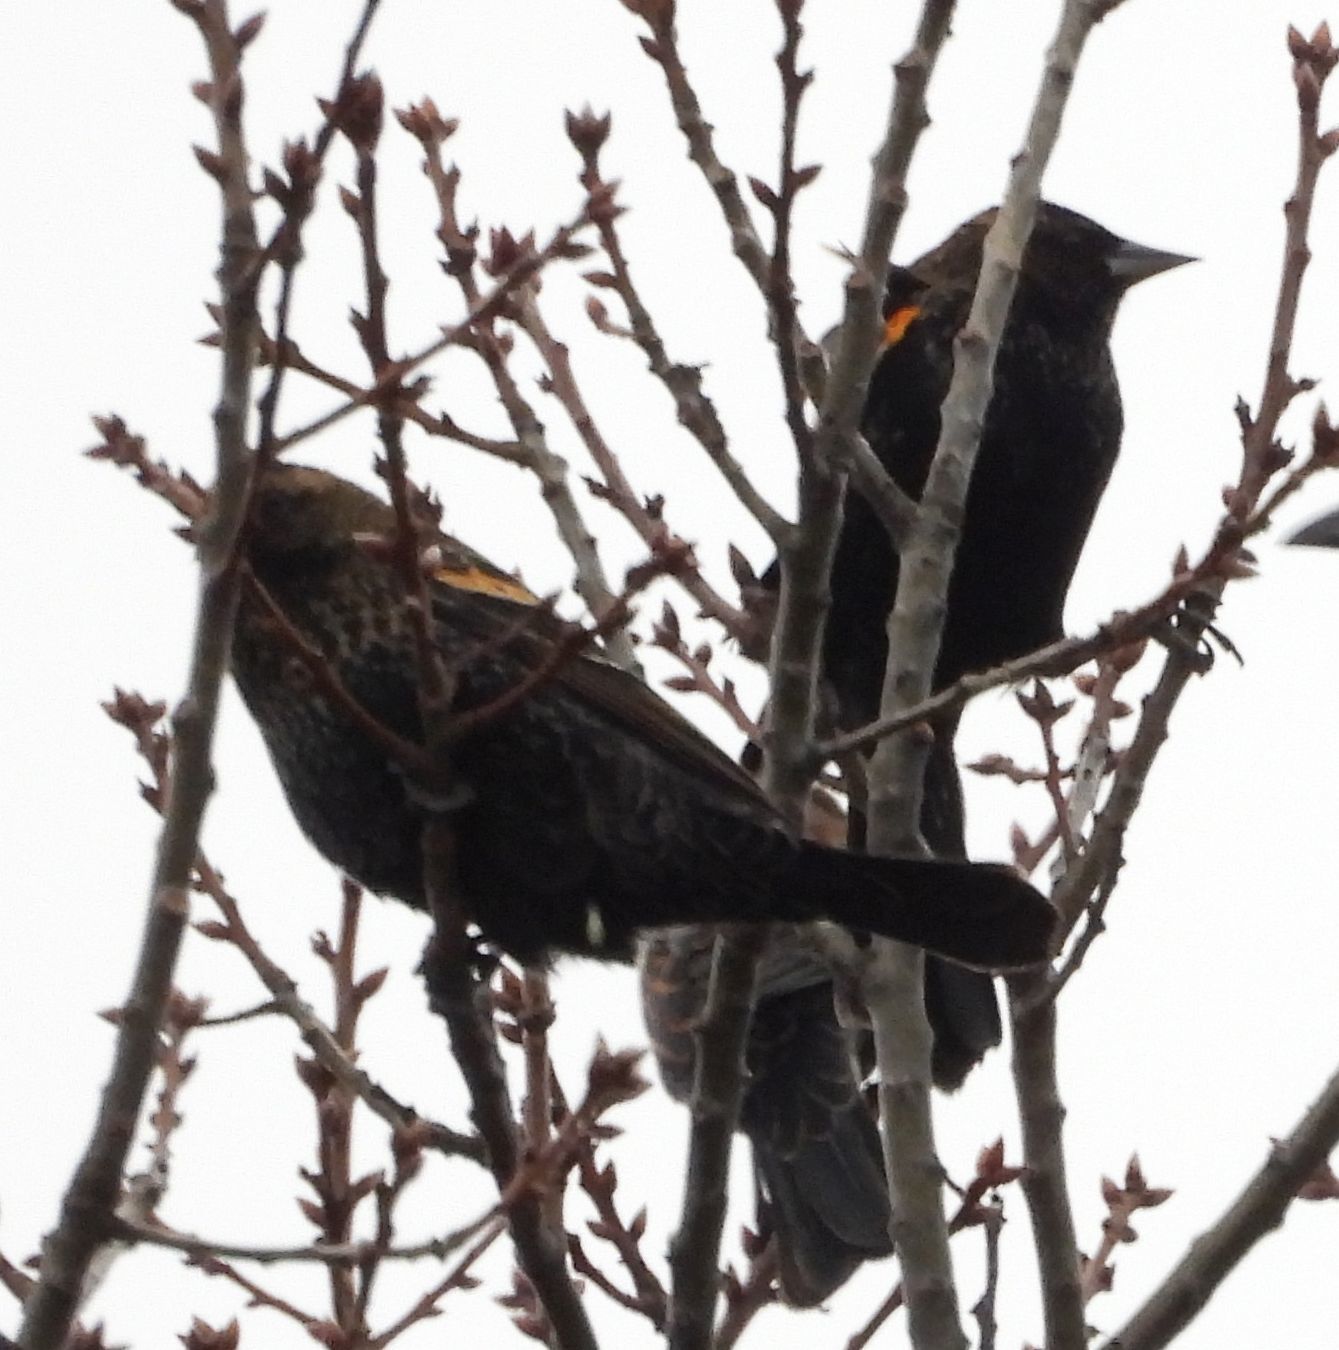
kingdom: Animalia
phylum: Chordata
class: Aves
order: Passeriformes
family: Icteridae
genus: Agelaius
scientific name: Agelaius phoeniceus
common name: Red-winged blackbird
